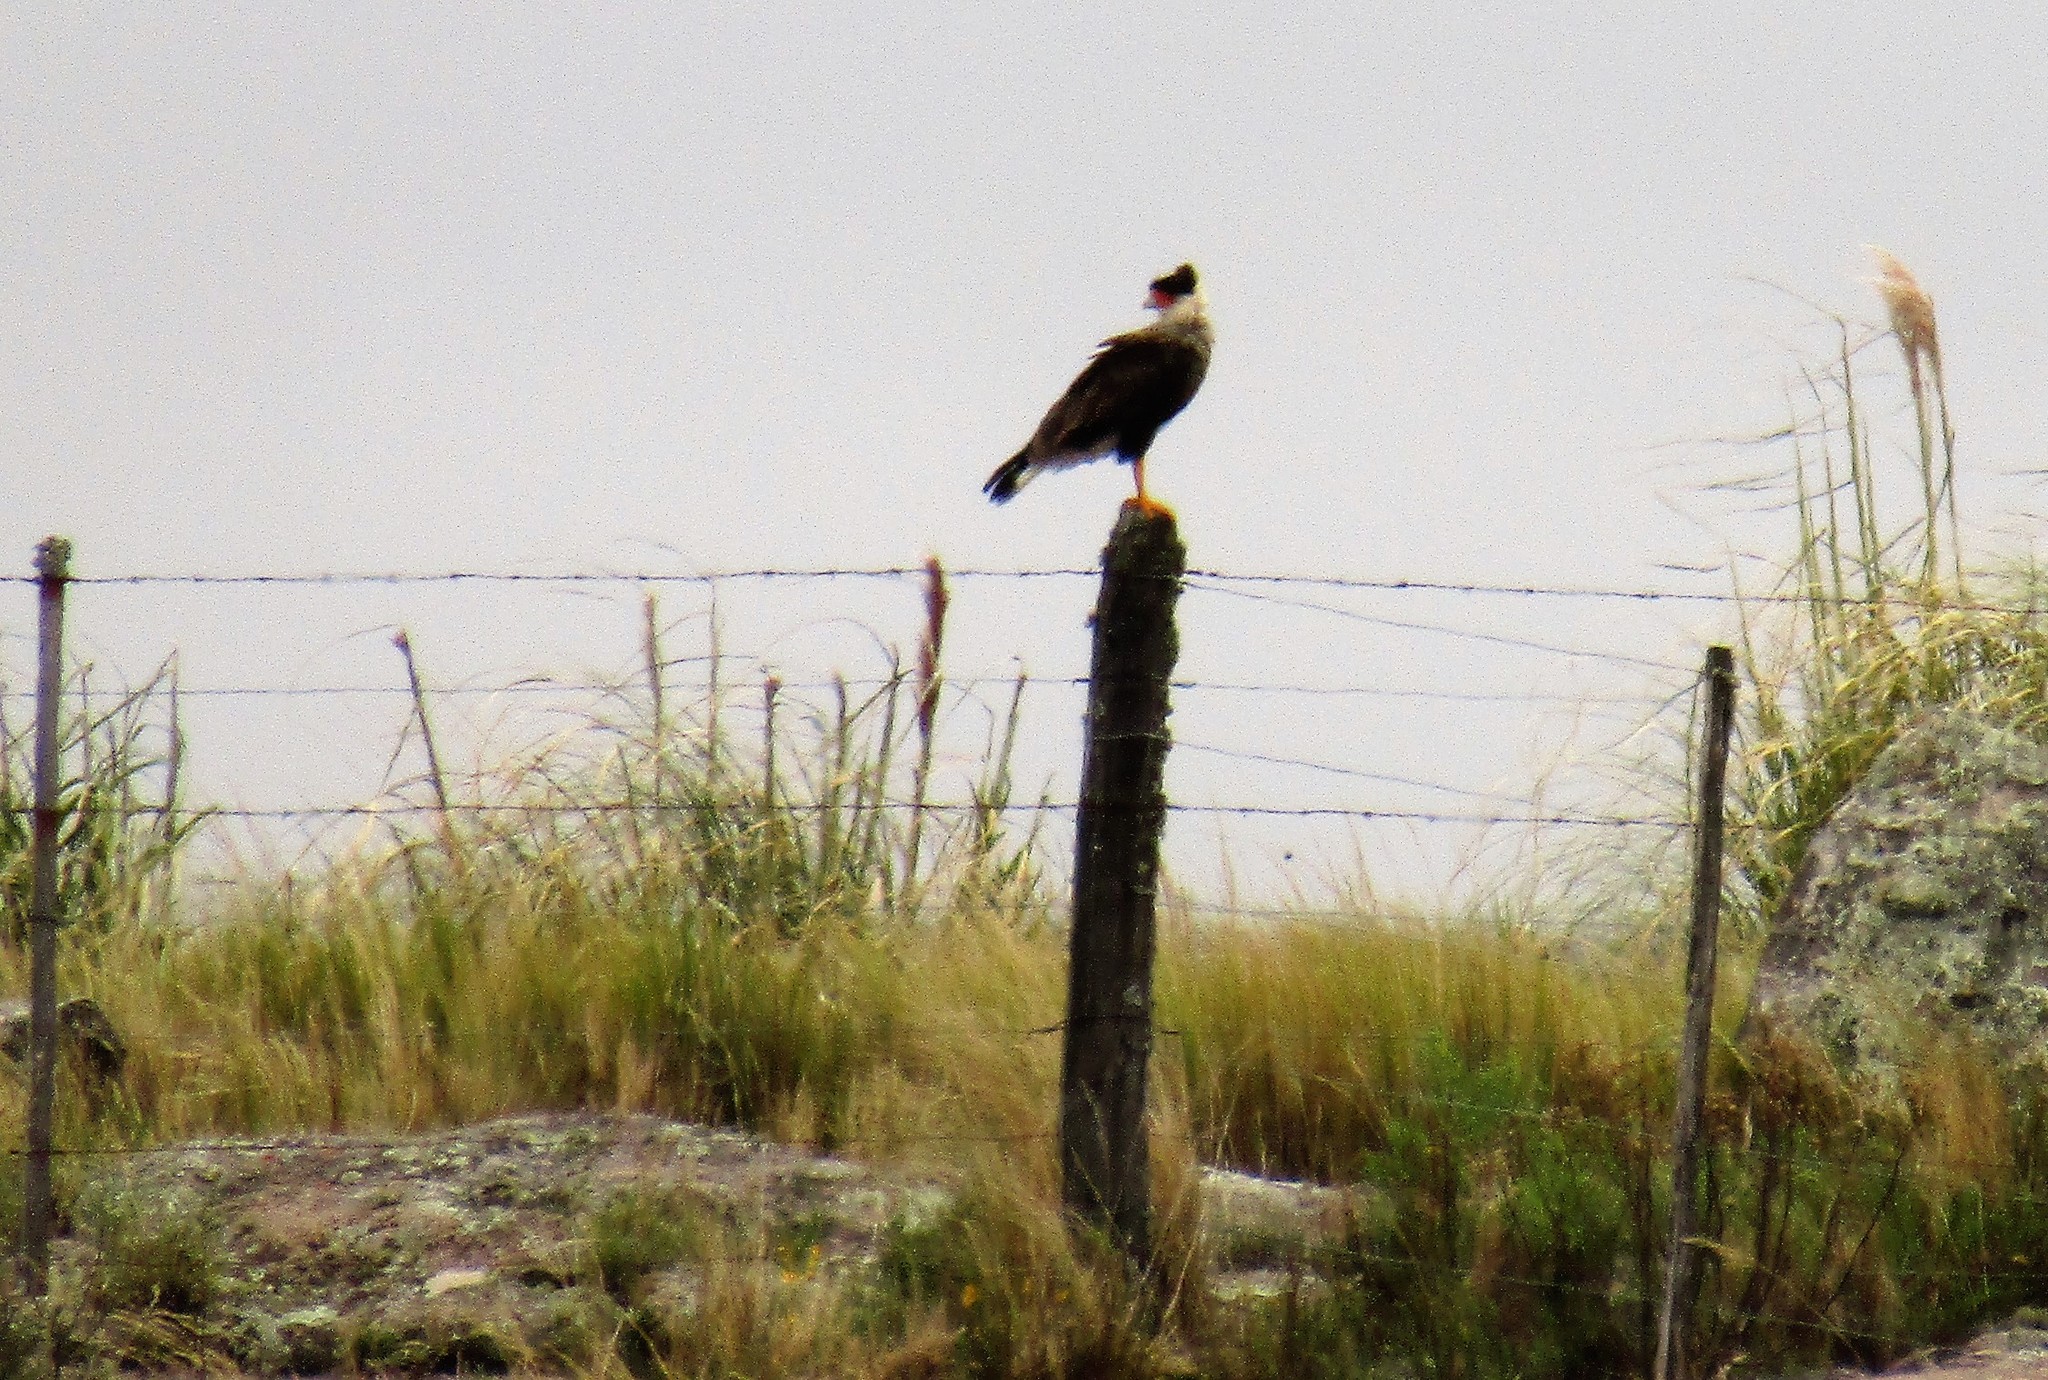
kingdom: Animalia
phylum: Chordata
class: Aves
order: Falconiformes
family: Falconidae
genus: Caracara
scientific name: Caracara plancus
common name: Southern caracara
